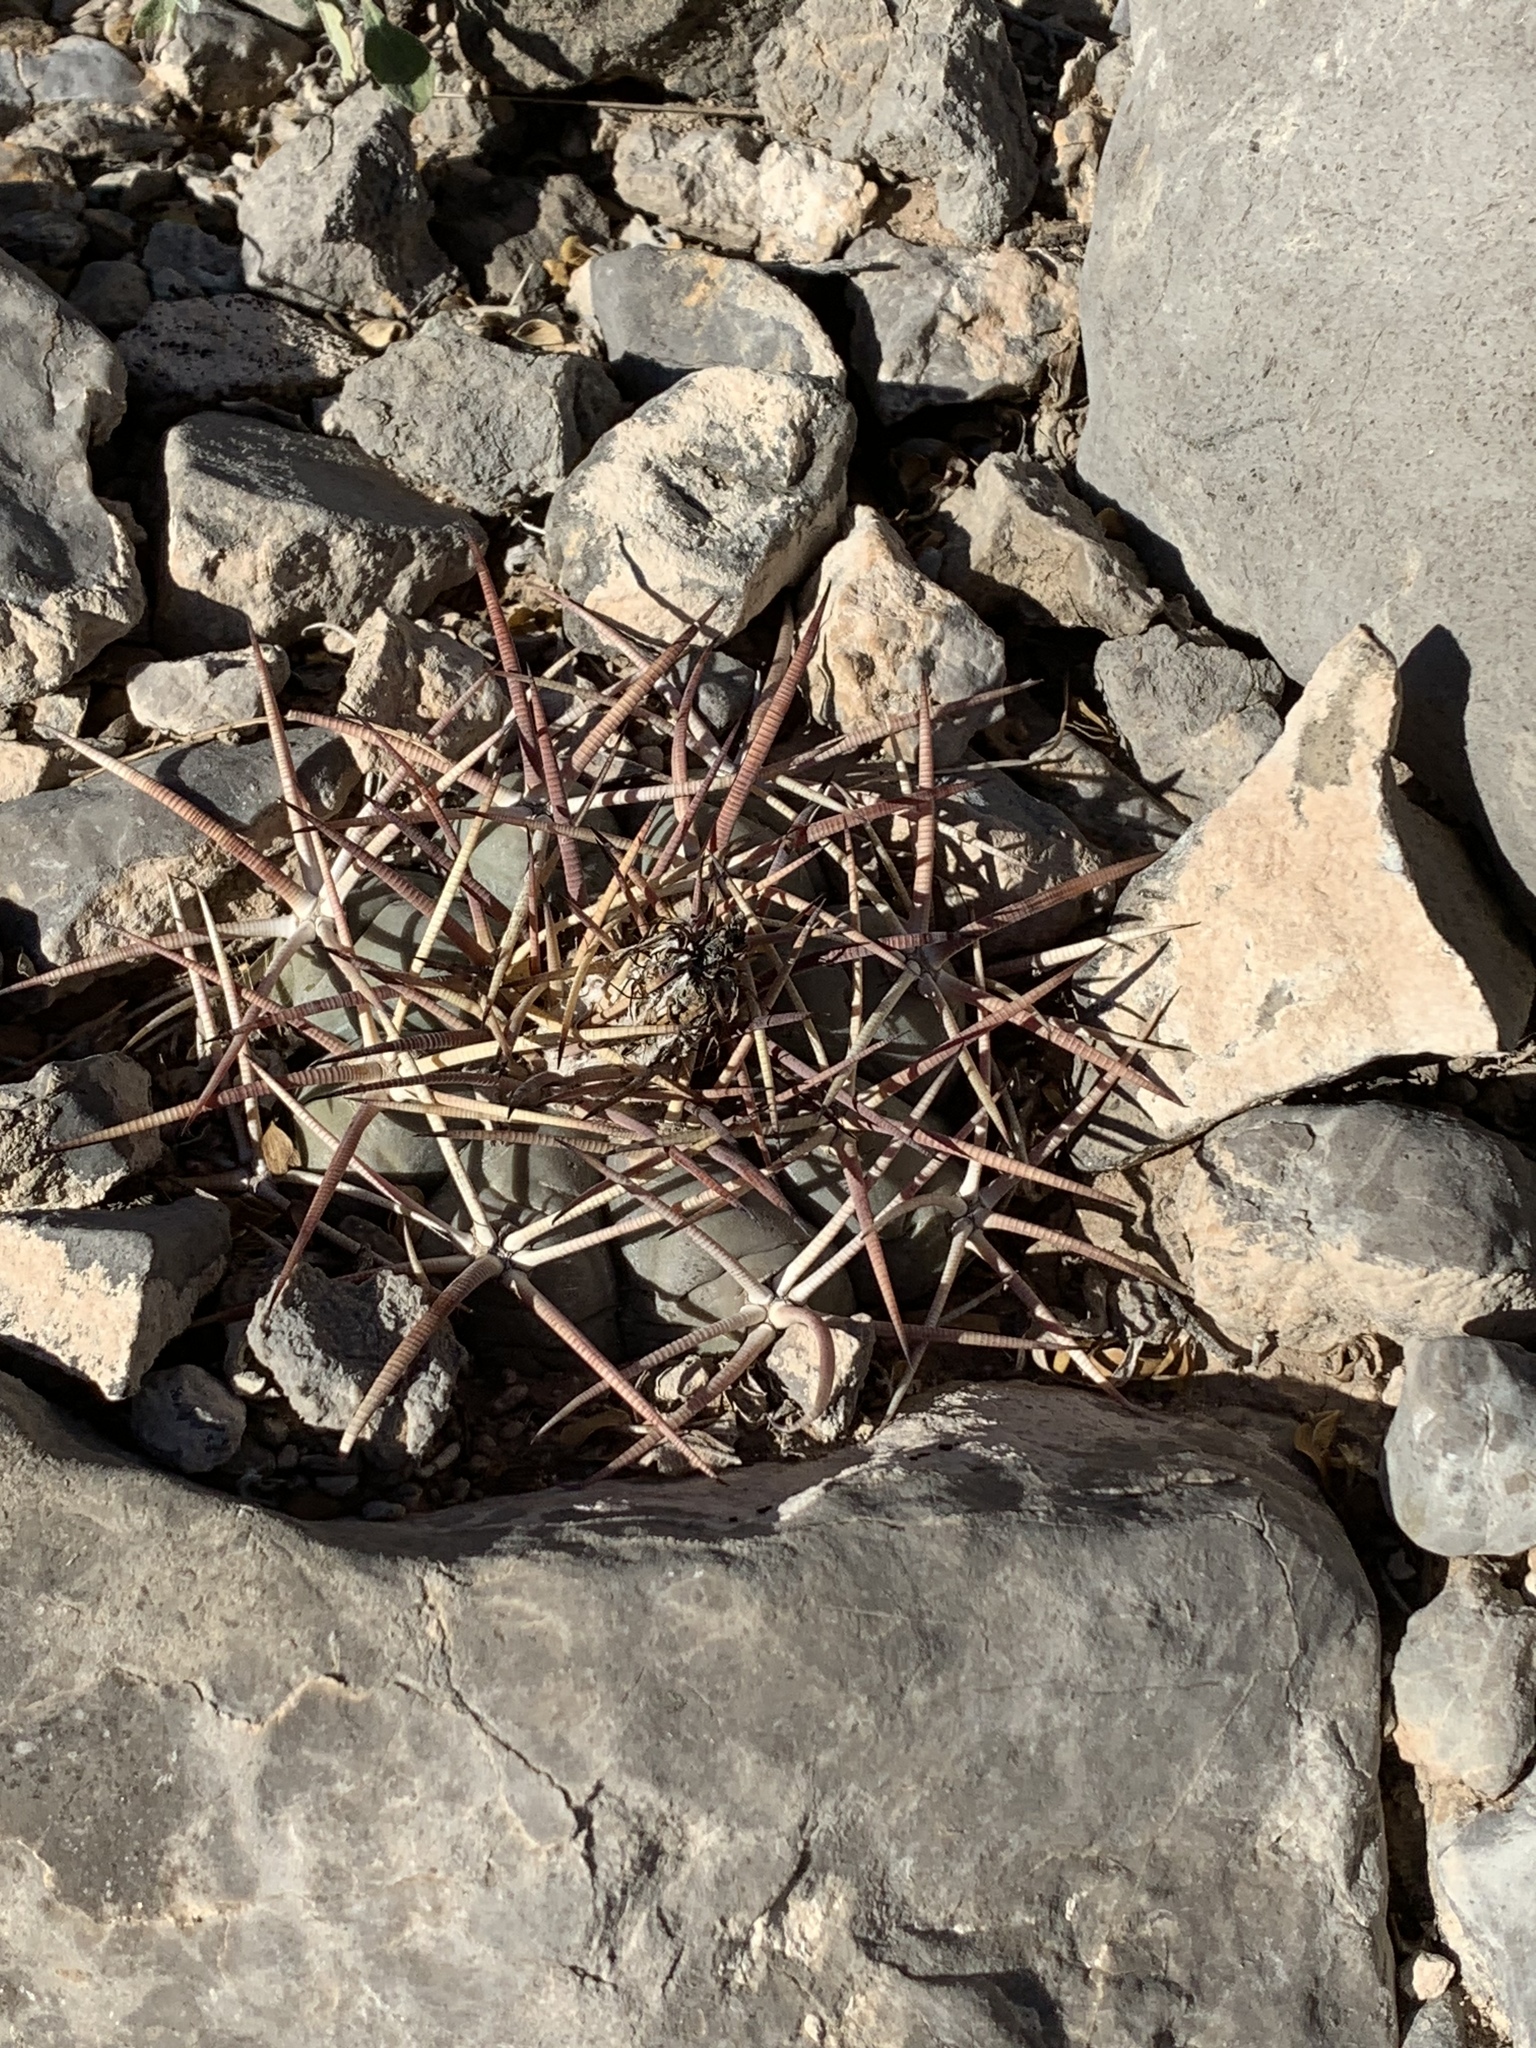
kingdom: Plantae
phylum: Tracheophyta
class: Magnoliopsida
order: Caryophyllales
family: Cactaceae
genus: Echinocactus
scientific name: Echinocactus horizonthalonius
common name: Devilshead
